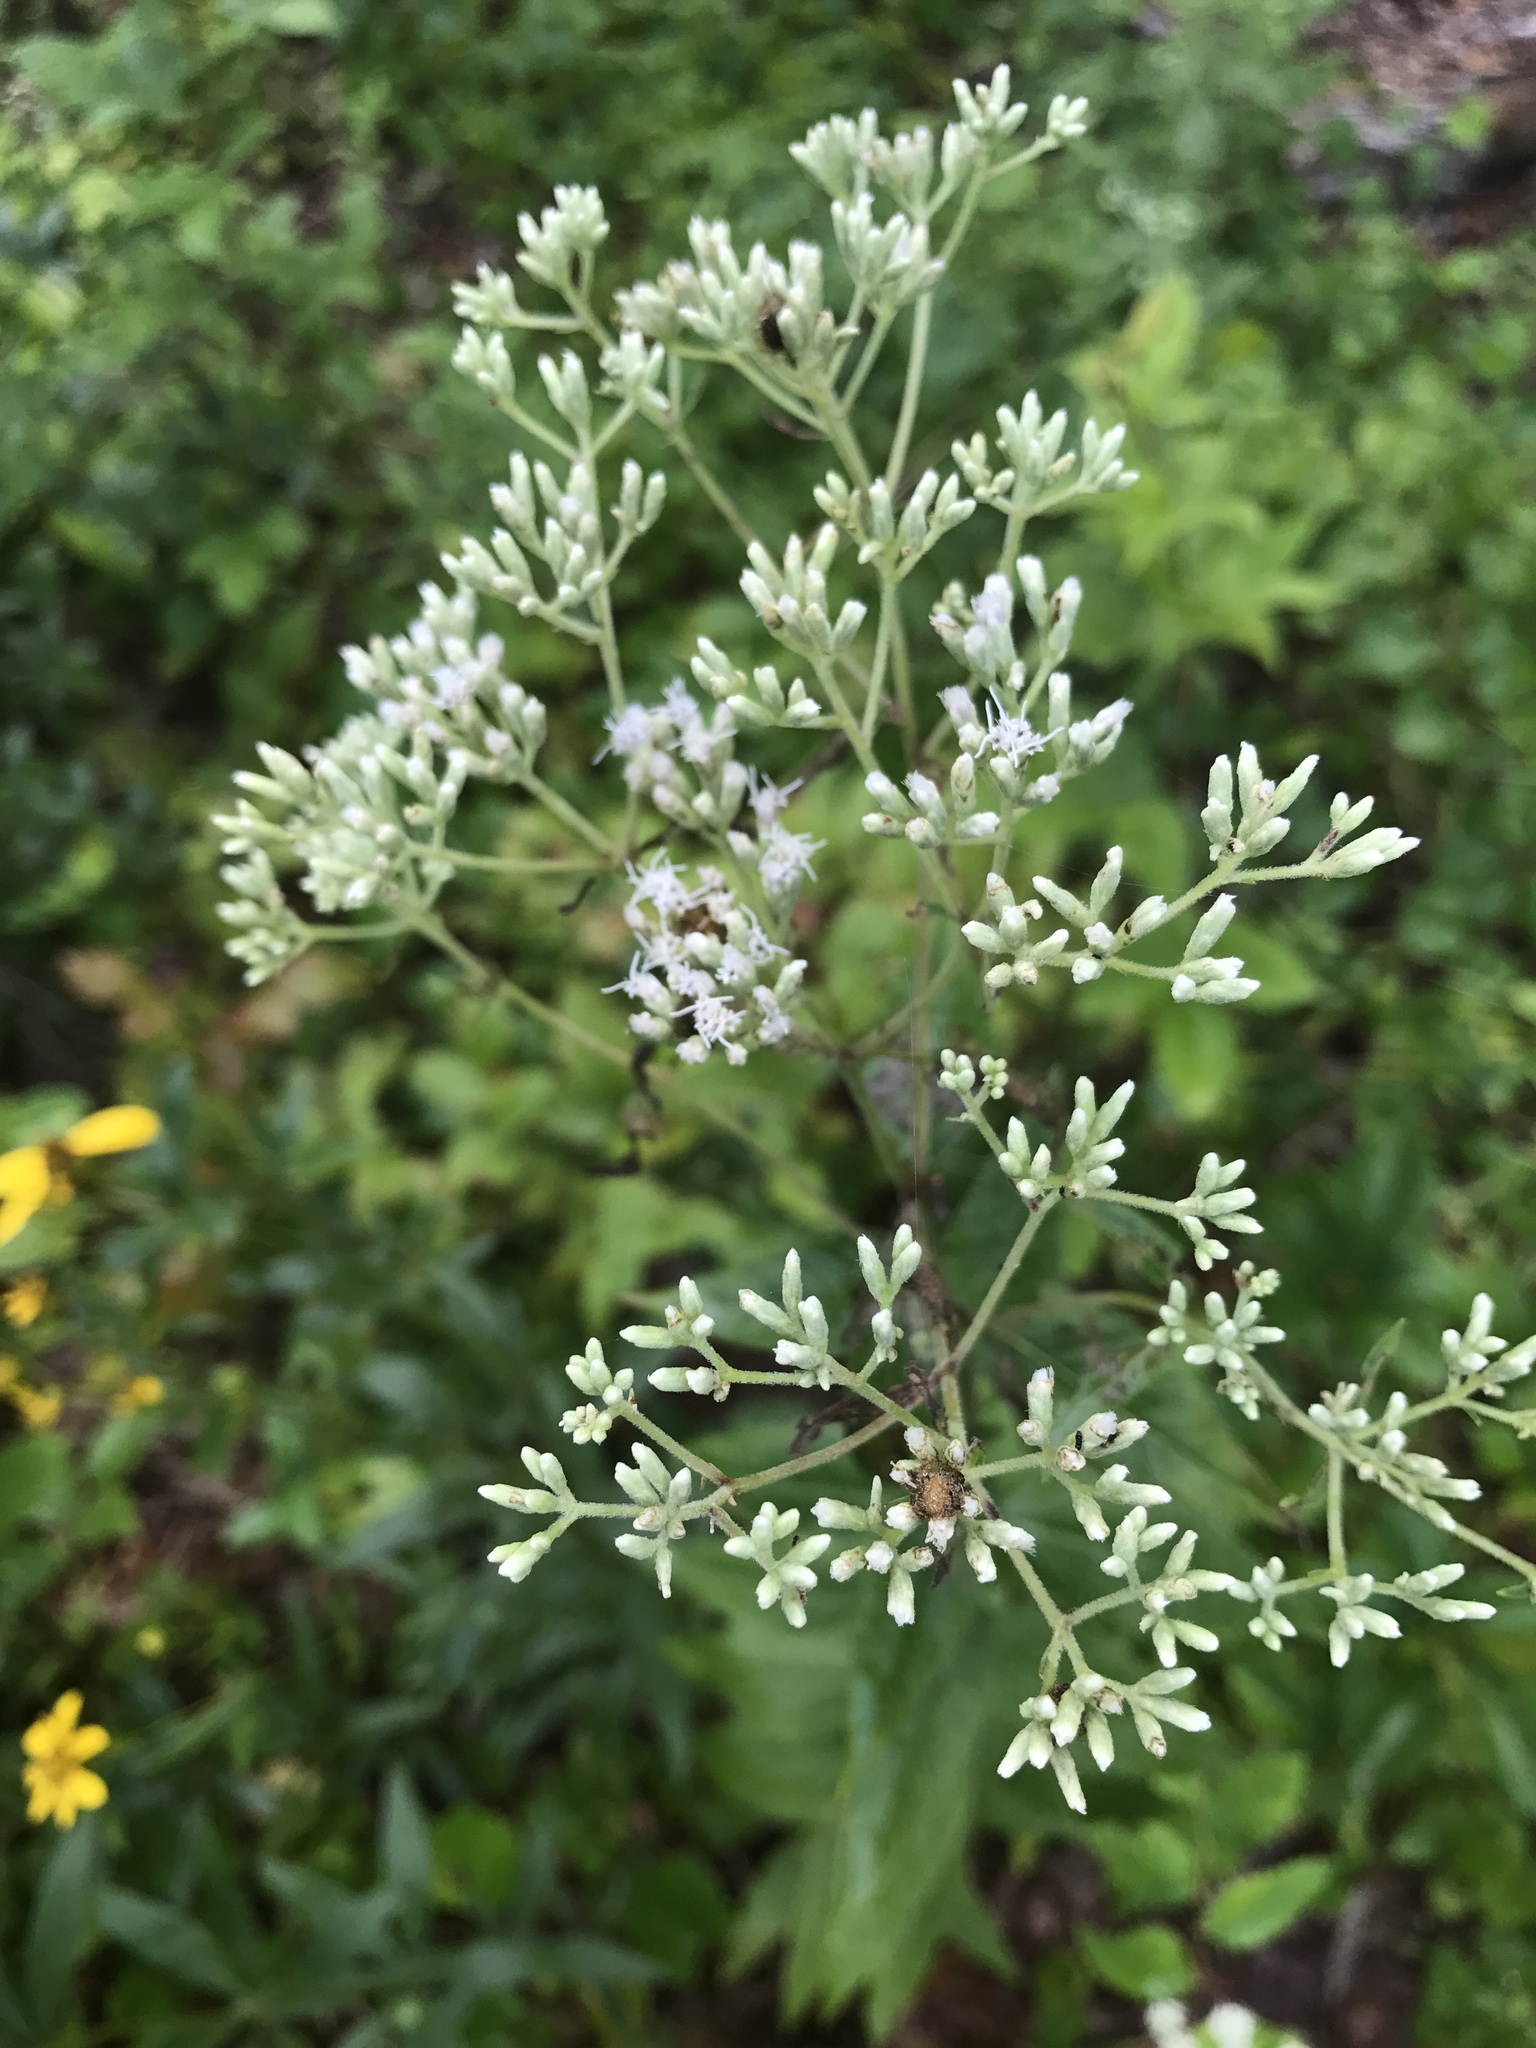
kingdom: Plantae
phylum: Tracheophyta
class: Magnoliopsida
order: Asterales
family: Asteraceae
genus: Eupatorium
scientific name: Eupatorium godfreyanum
